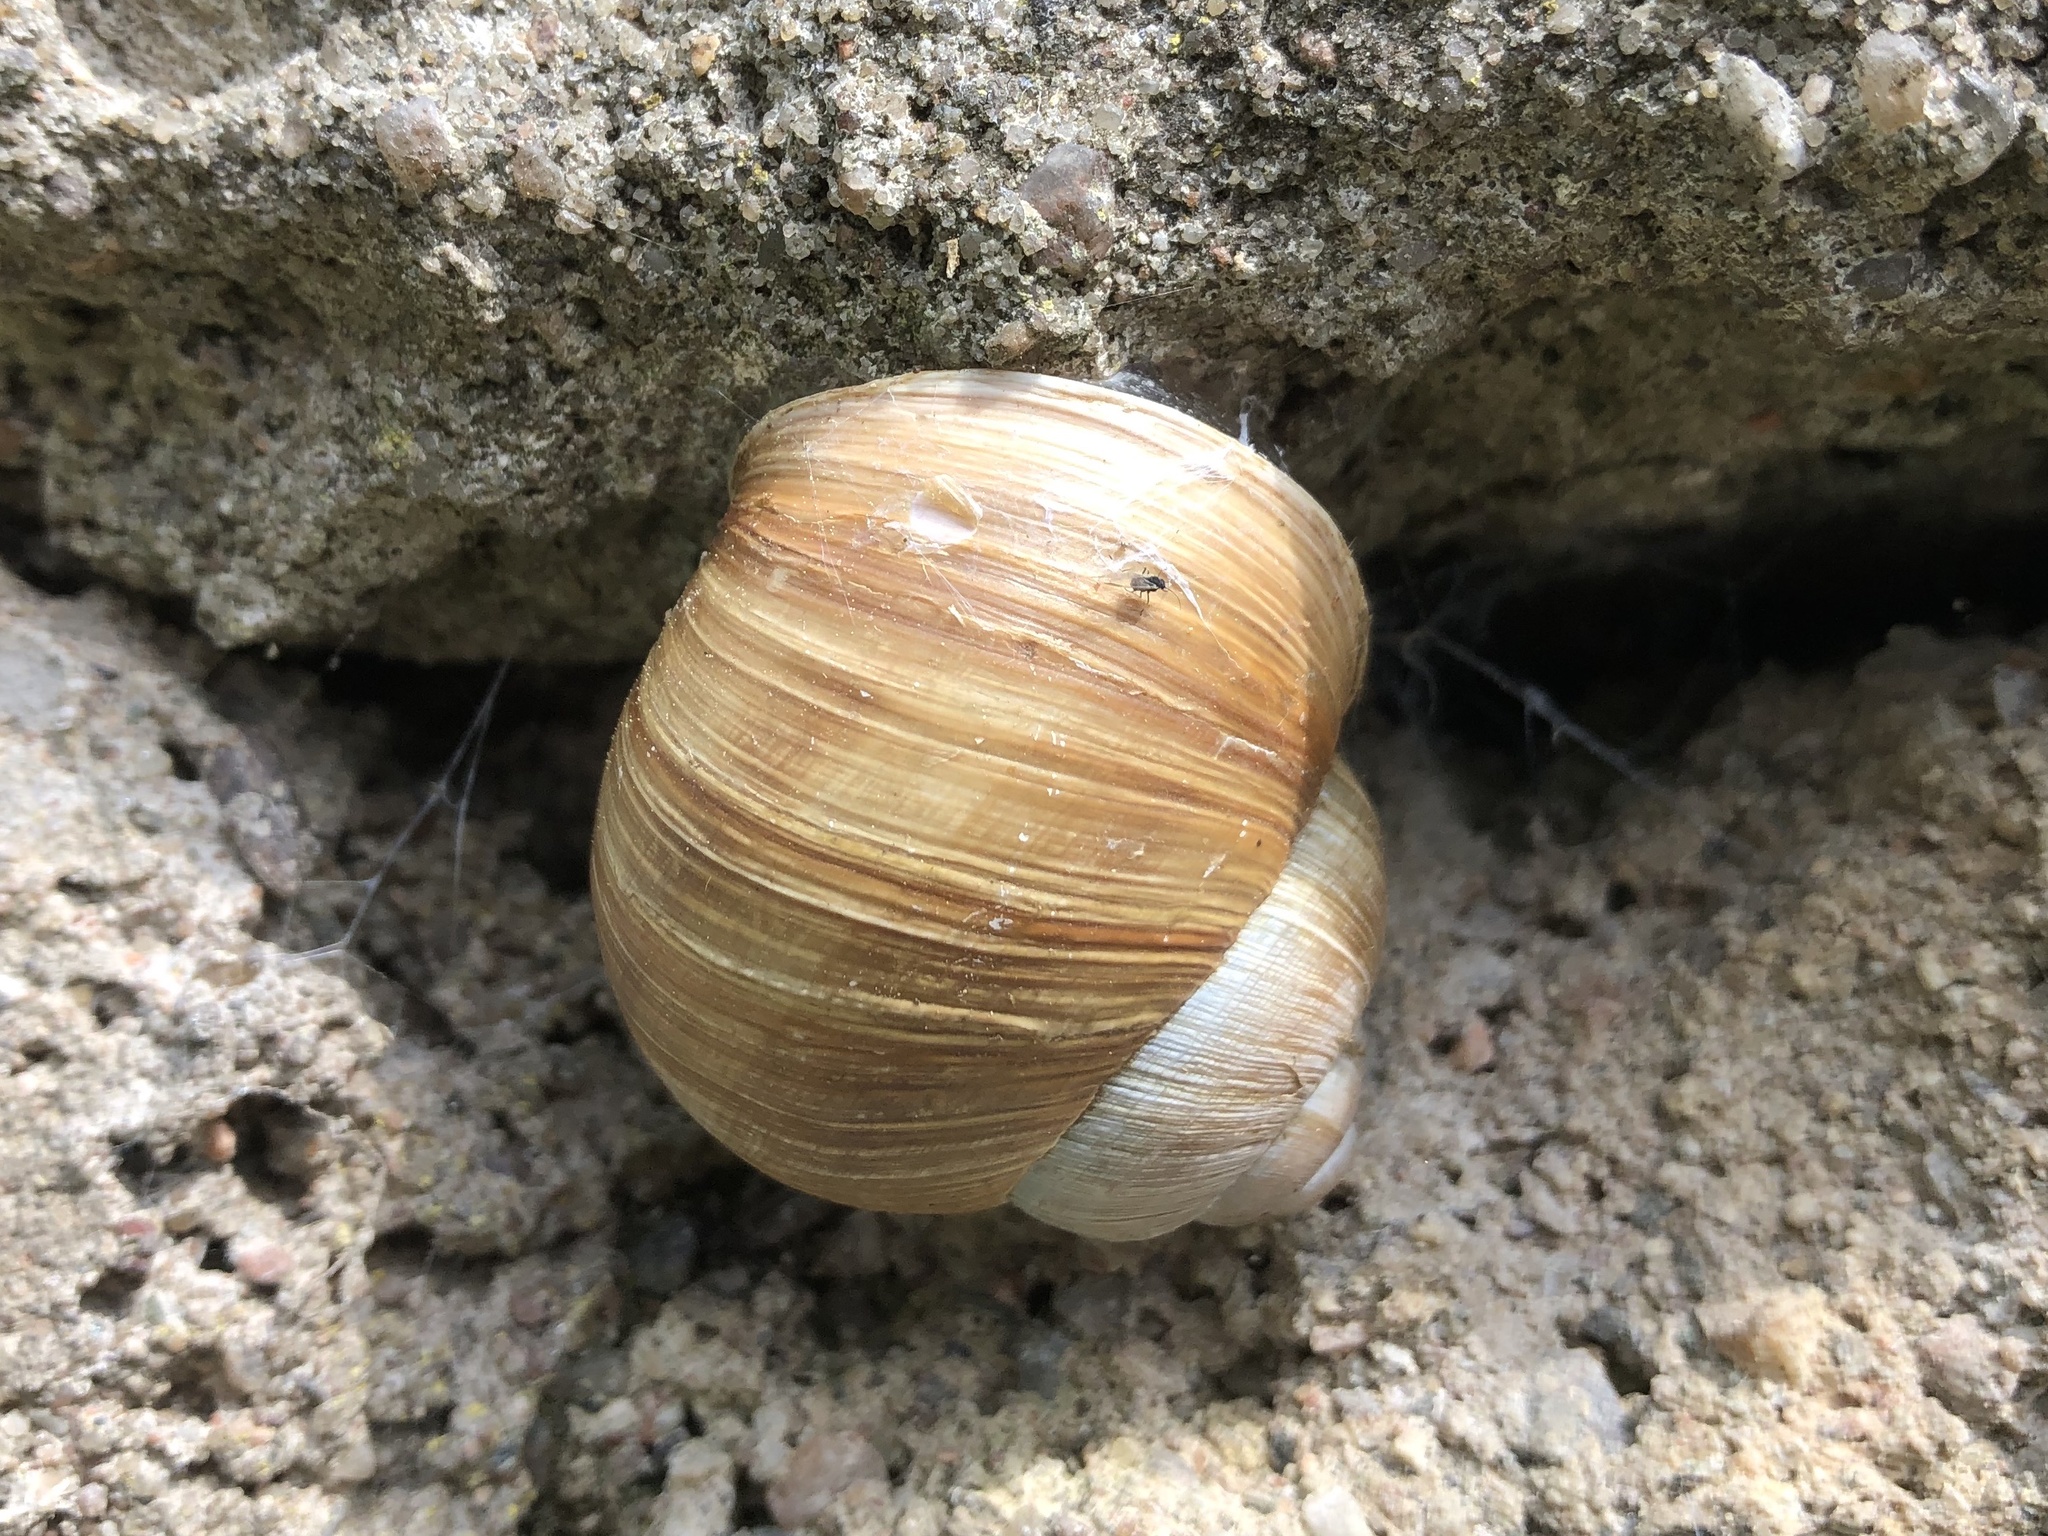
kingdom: Animalia
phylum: Mollusca
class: Gastropoda
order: Stylommatophora
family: Helicidae
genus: Helix
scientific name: Helix pomatia
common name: Roman snail
